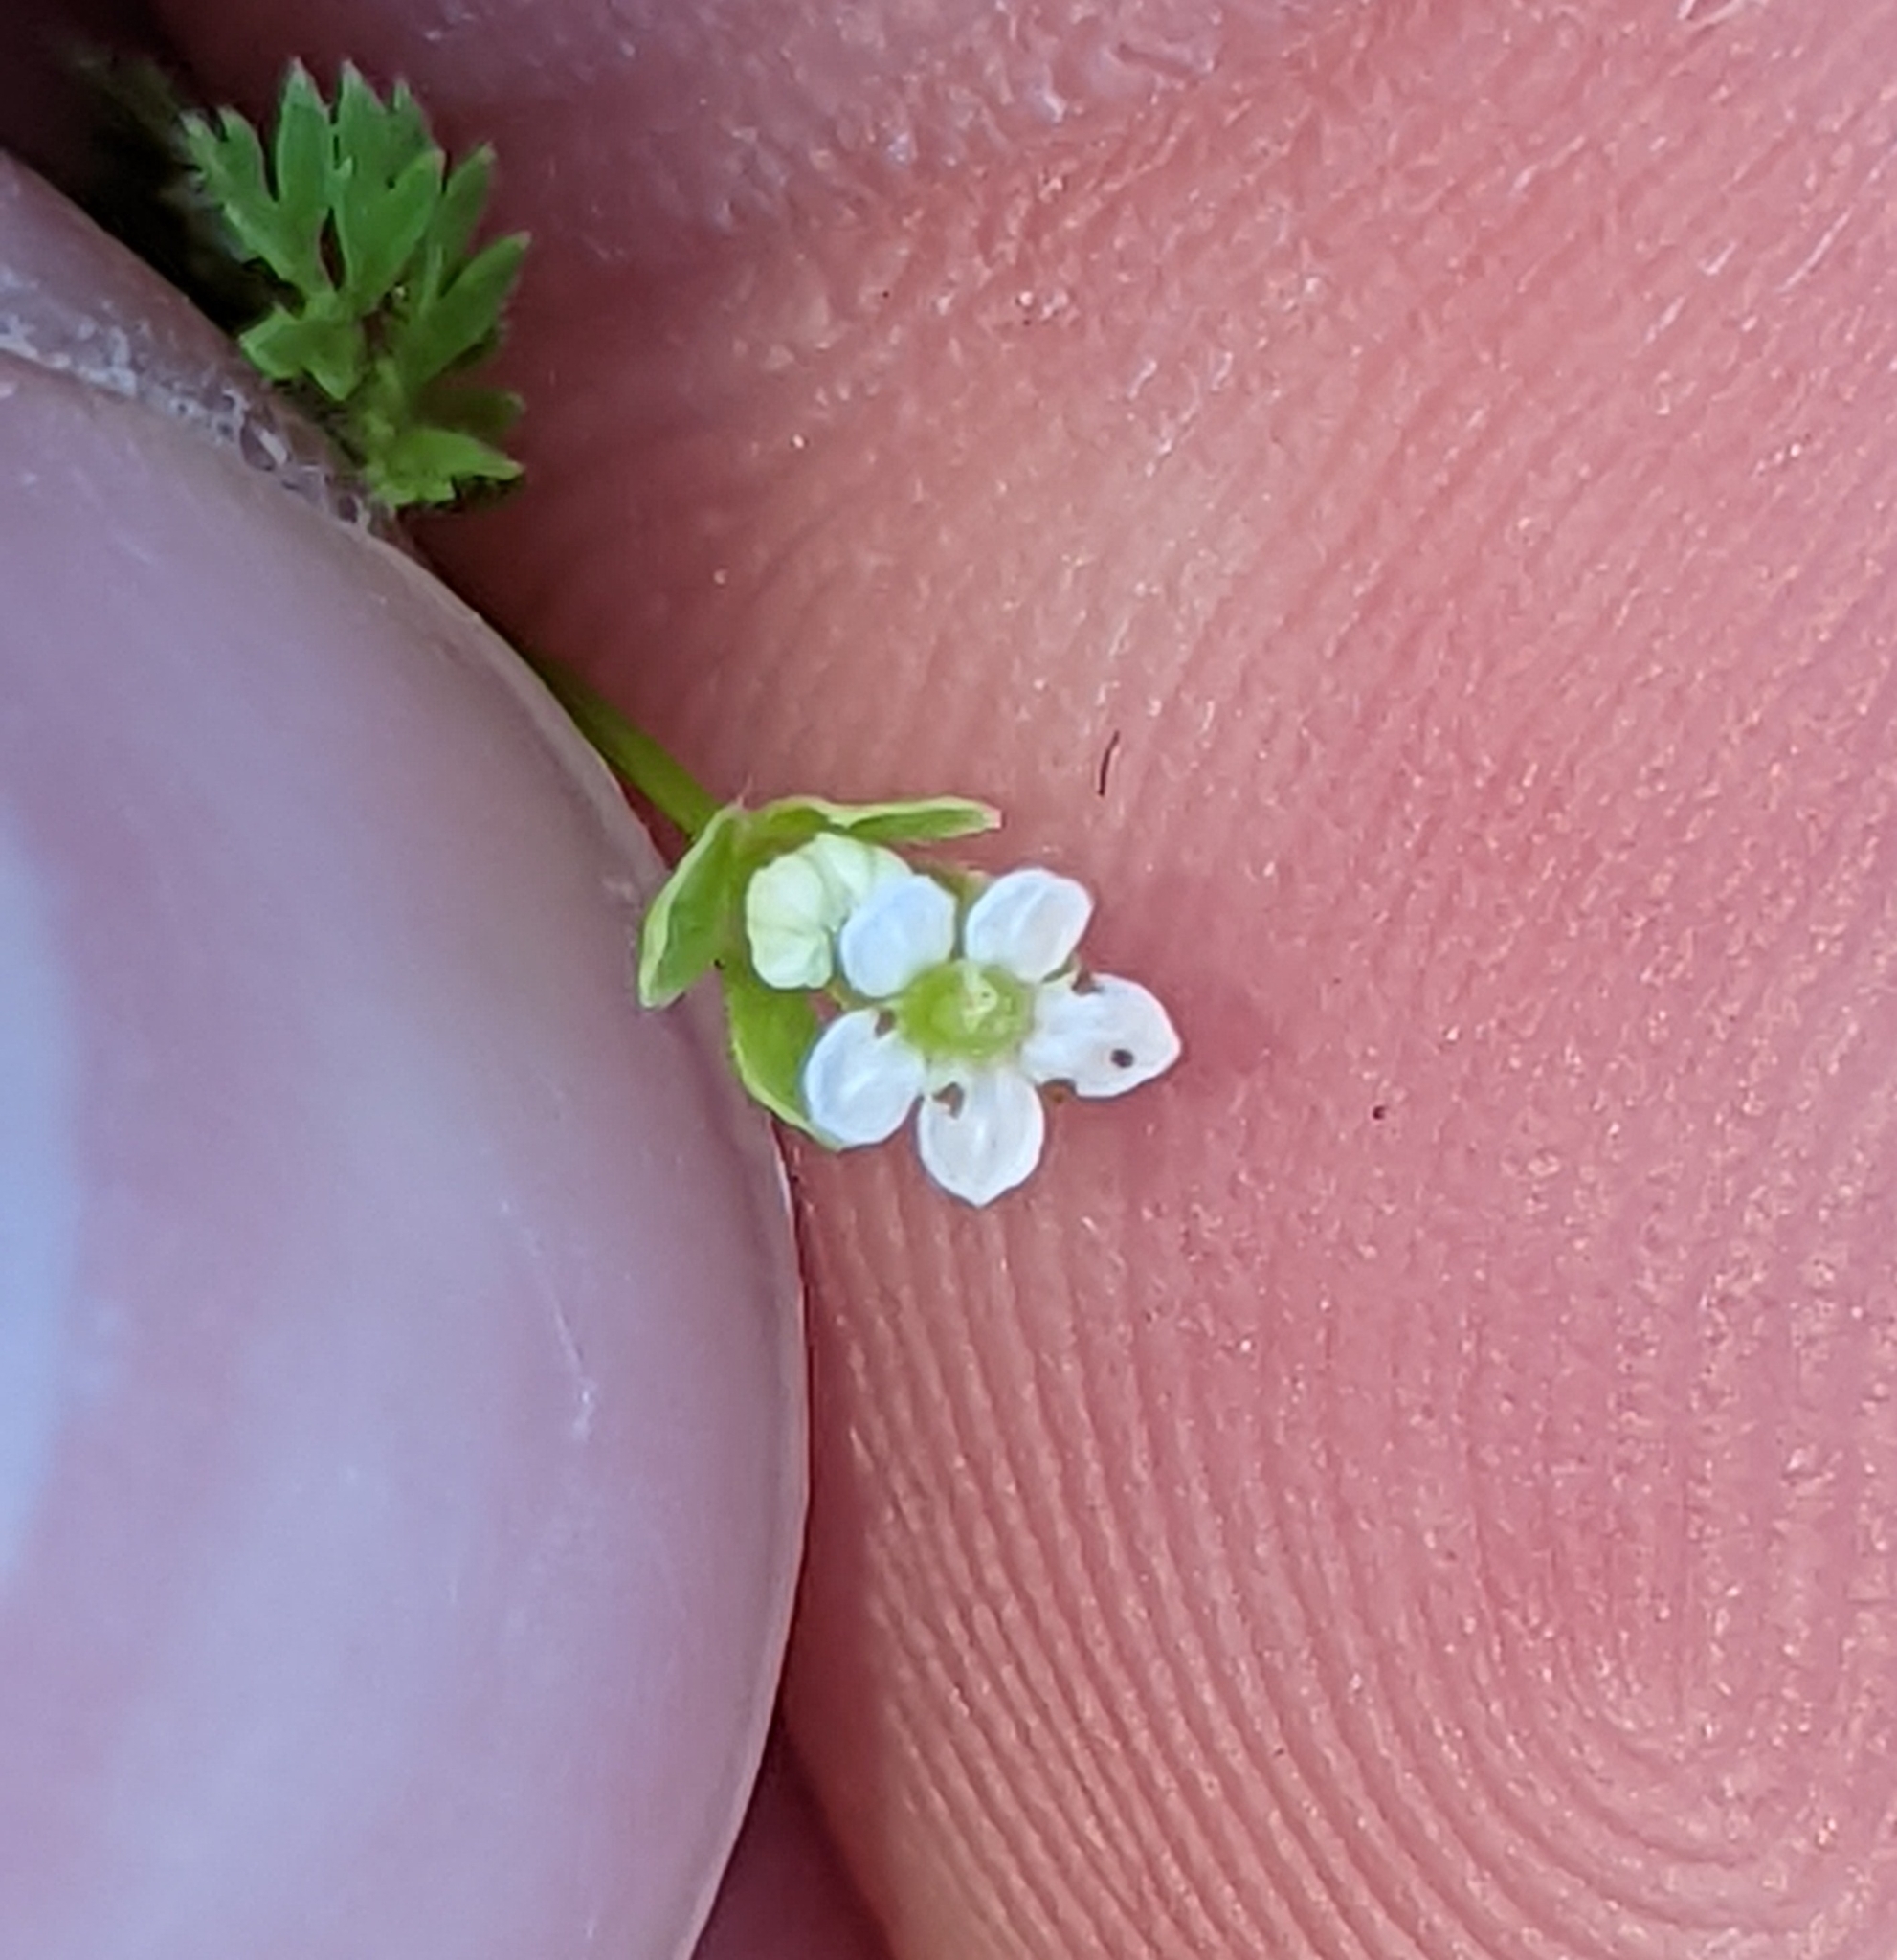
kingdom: Plantae
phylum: Tracheophyta
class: Magnoliopsida
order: Apiales
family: Apiaceae
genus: Chaerophyllum
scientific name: Chaerophyllum tainturieri
